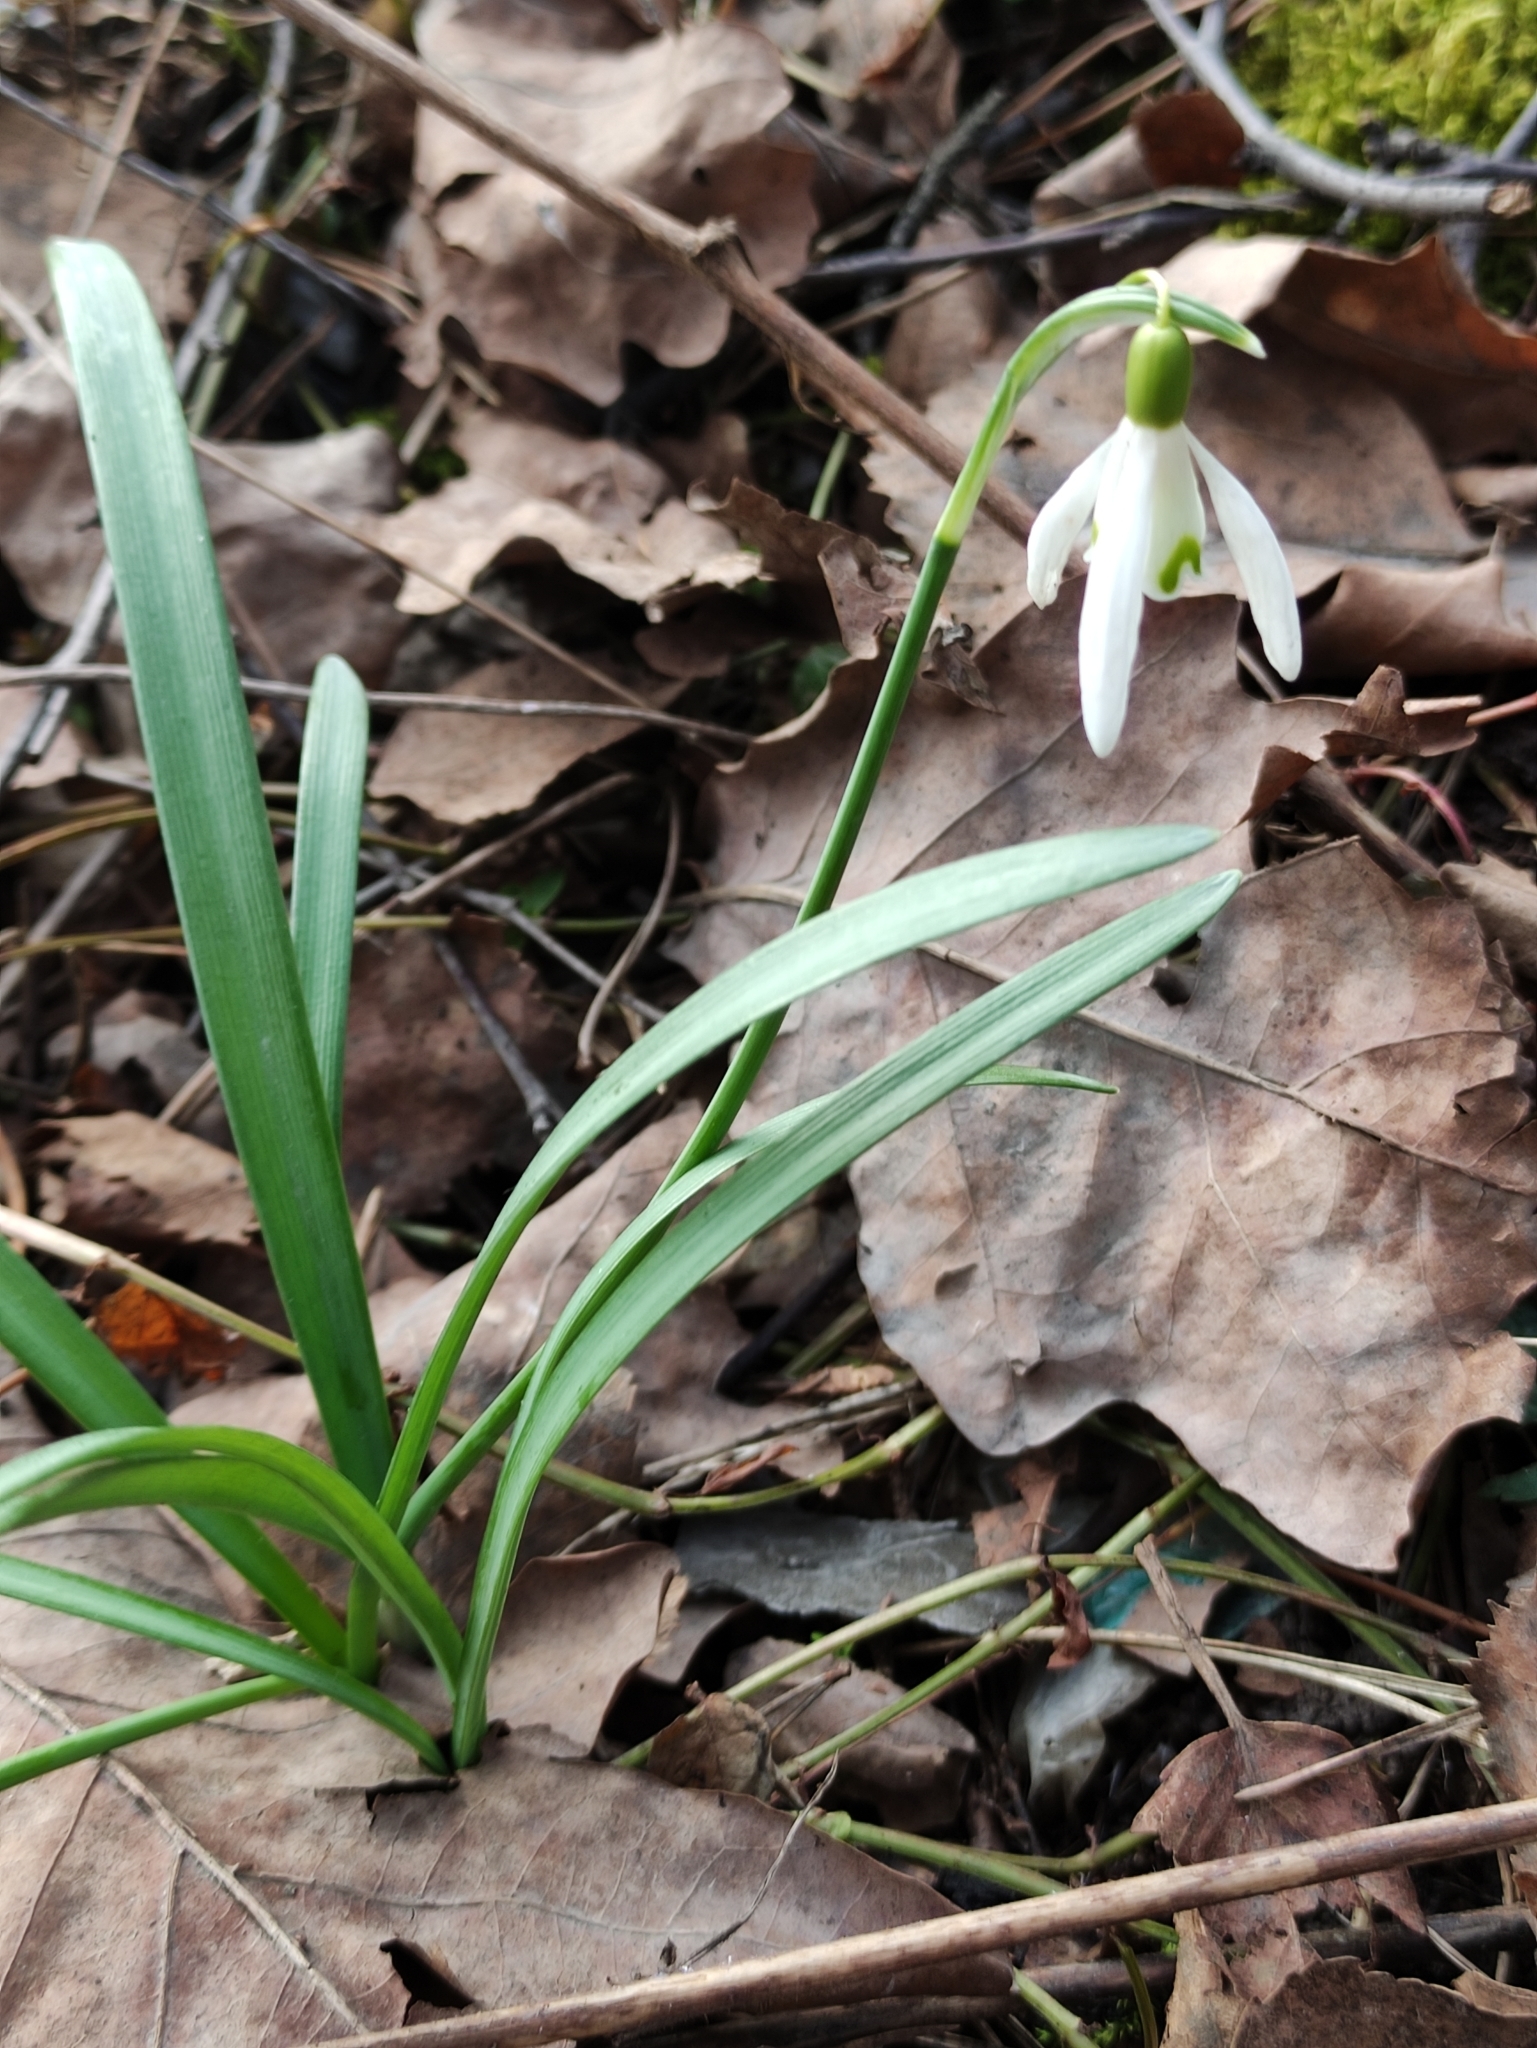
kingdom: Plantae
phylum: Tracheophyta
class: Liliopsida
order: Asparagales
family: Amaryllidaceae
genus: Galanthus
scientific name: Galanthus nivalis
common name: Snowdrop
